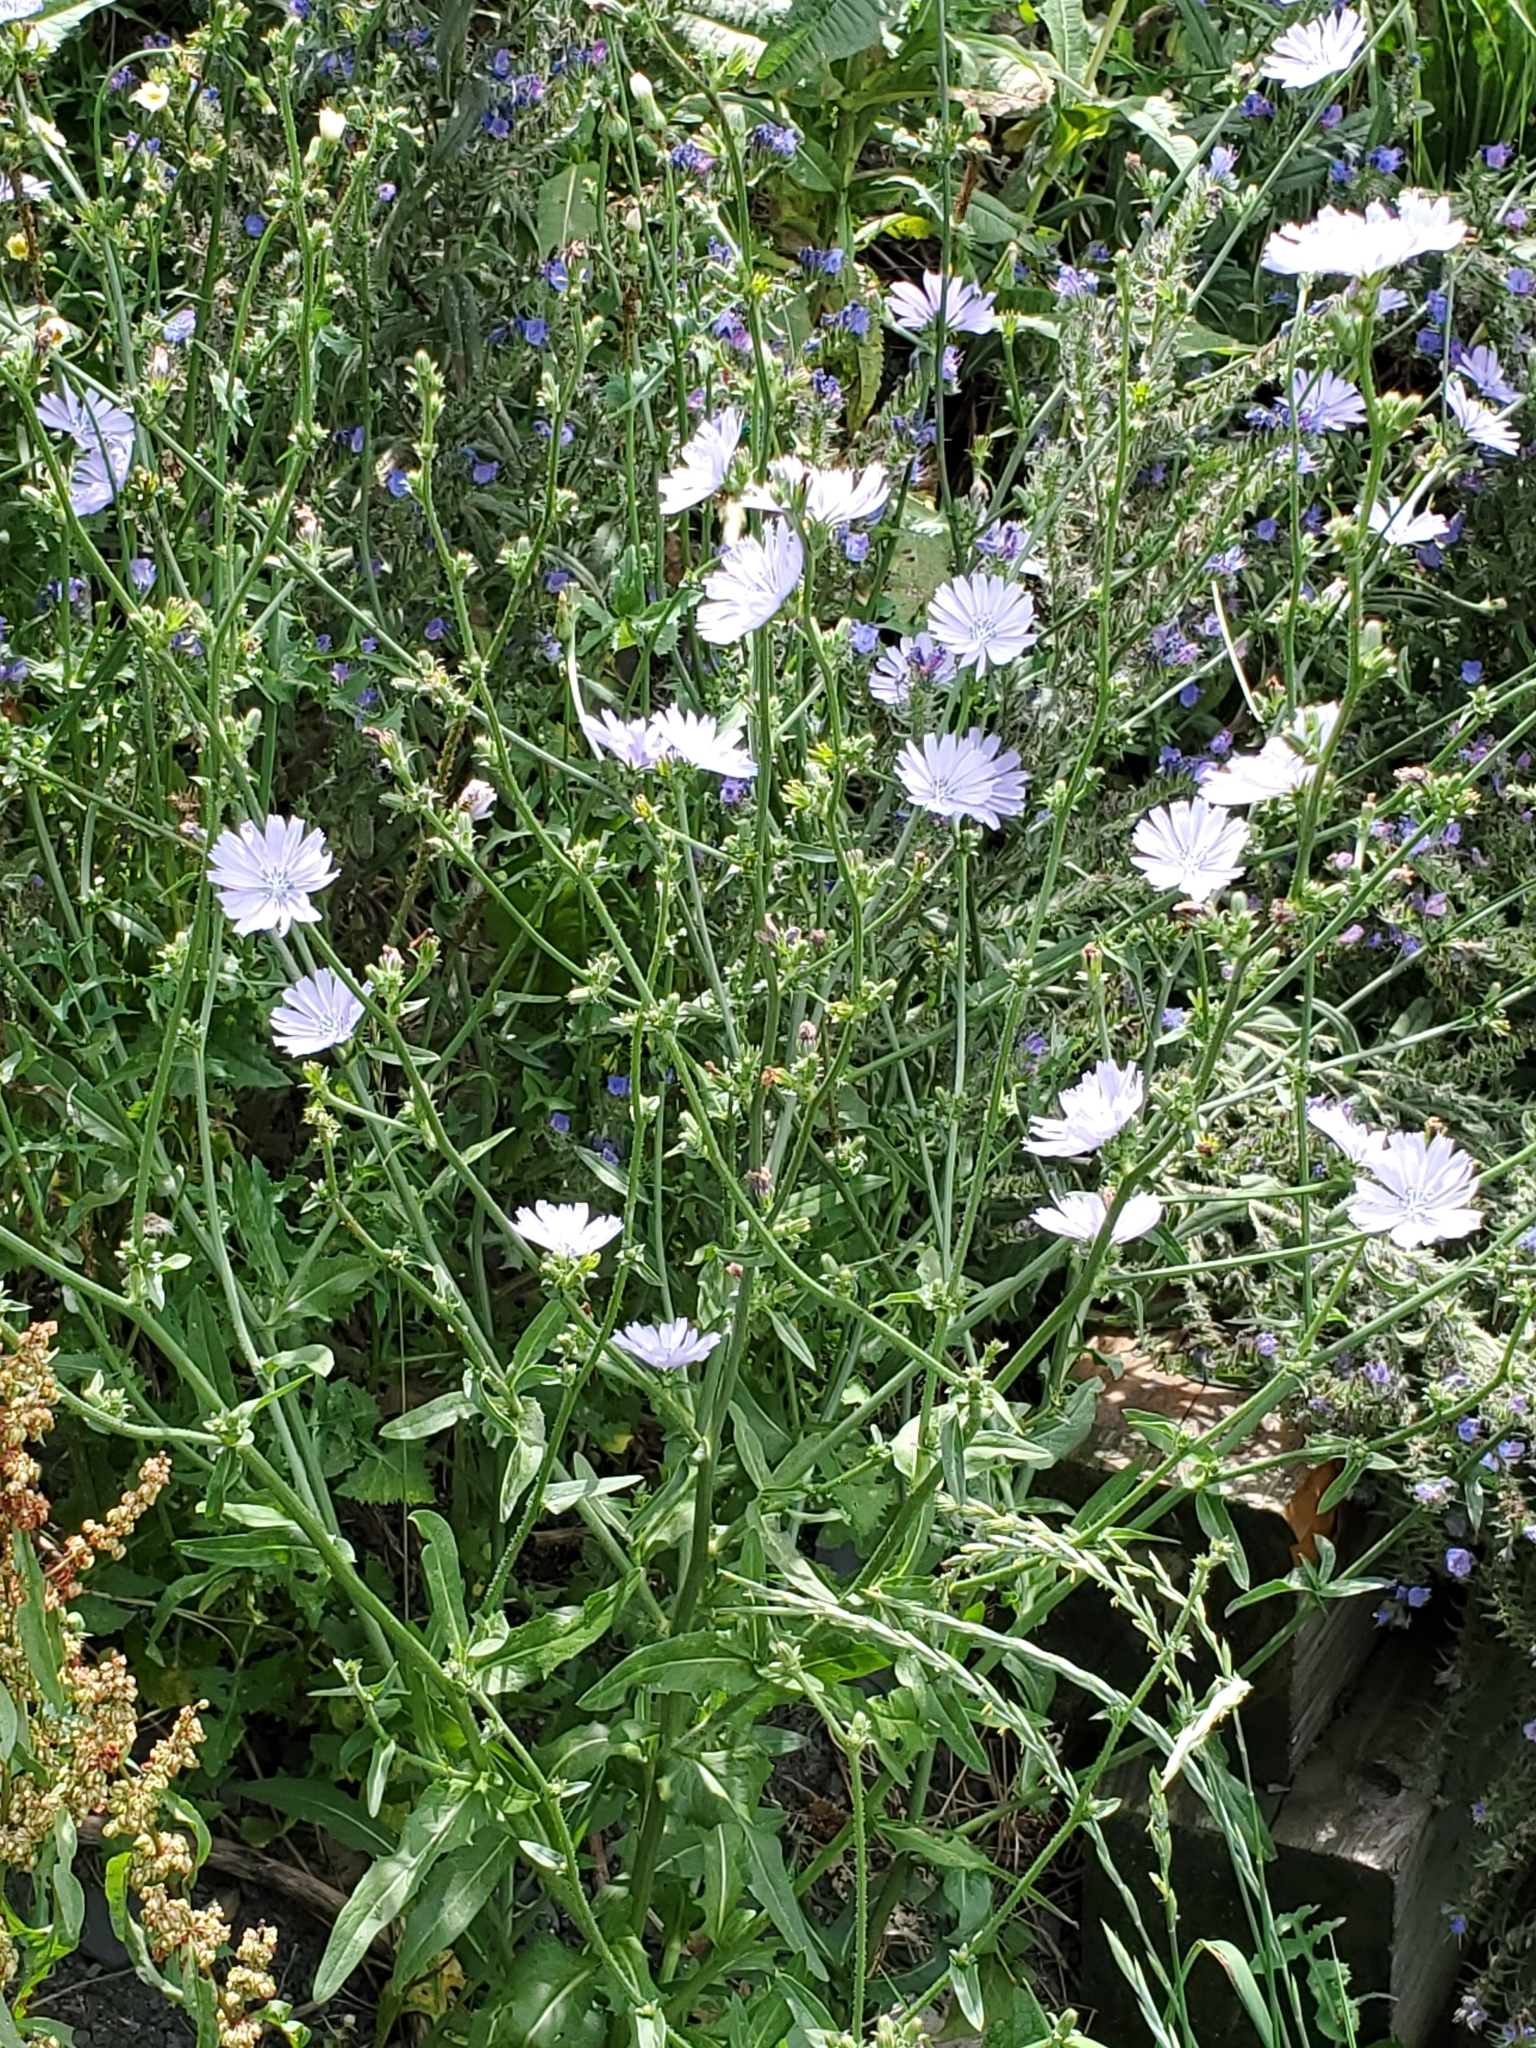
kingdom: Plantae
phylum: Tracheophyta
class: Magnoliopsida
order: Asterales
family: Asteraceae
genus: Cichorium
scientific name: Cichorium intybus
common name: Chicory
